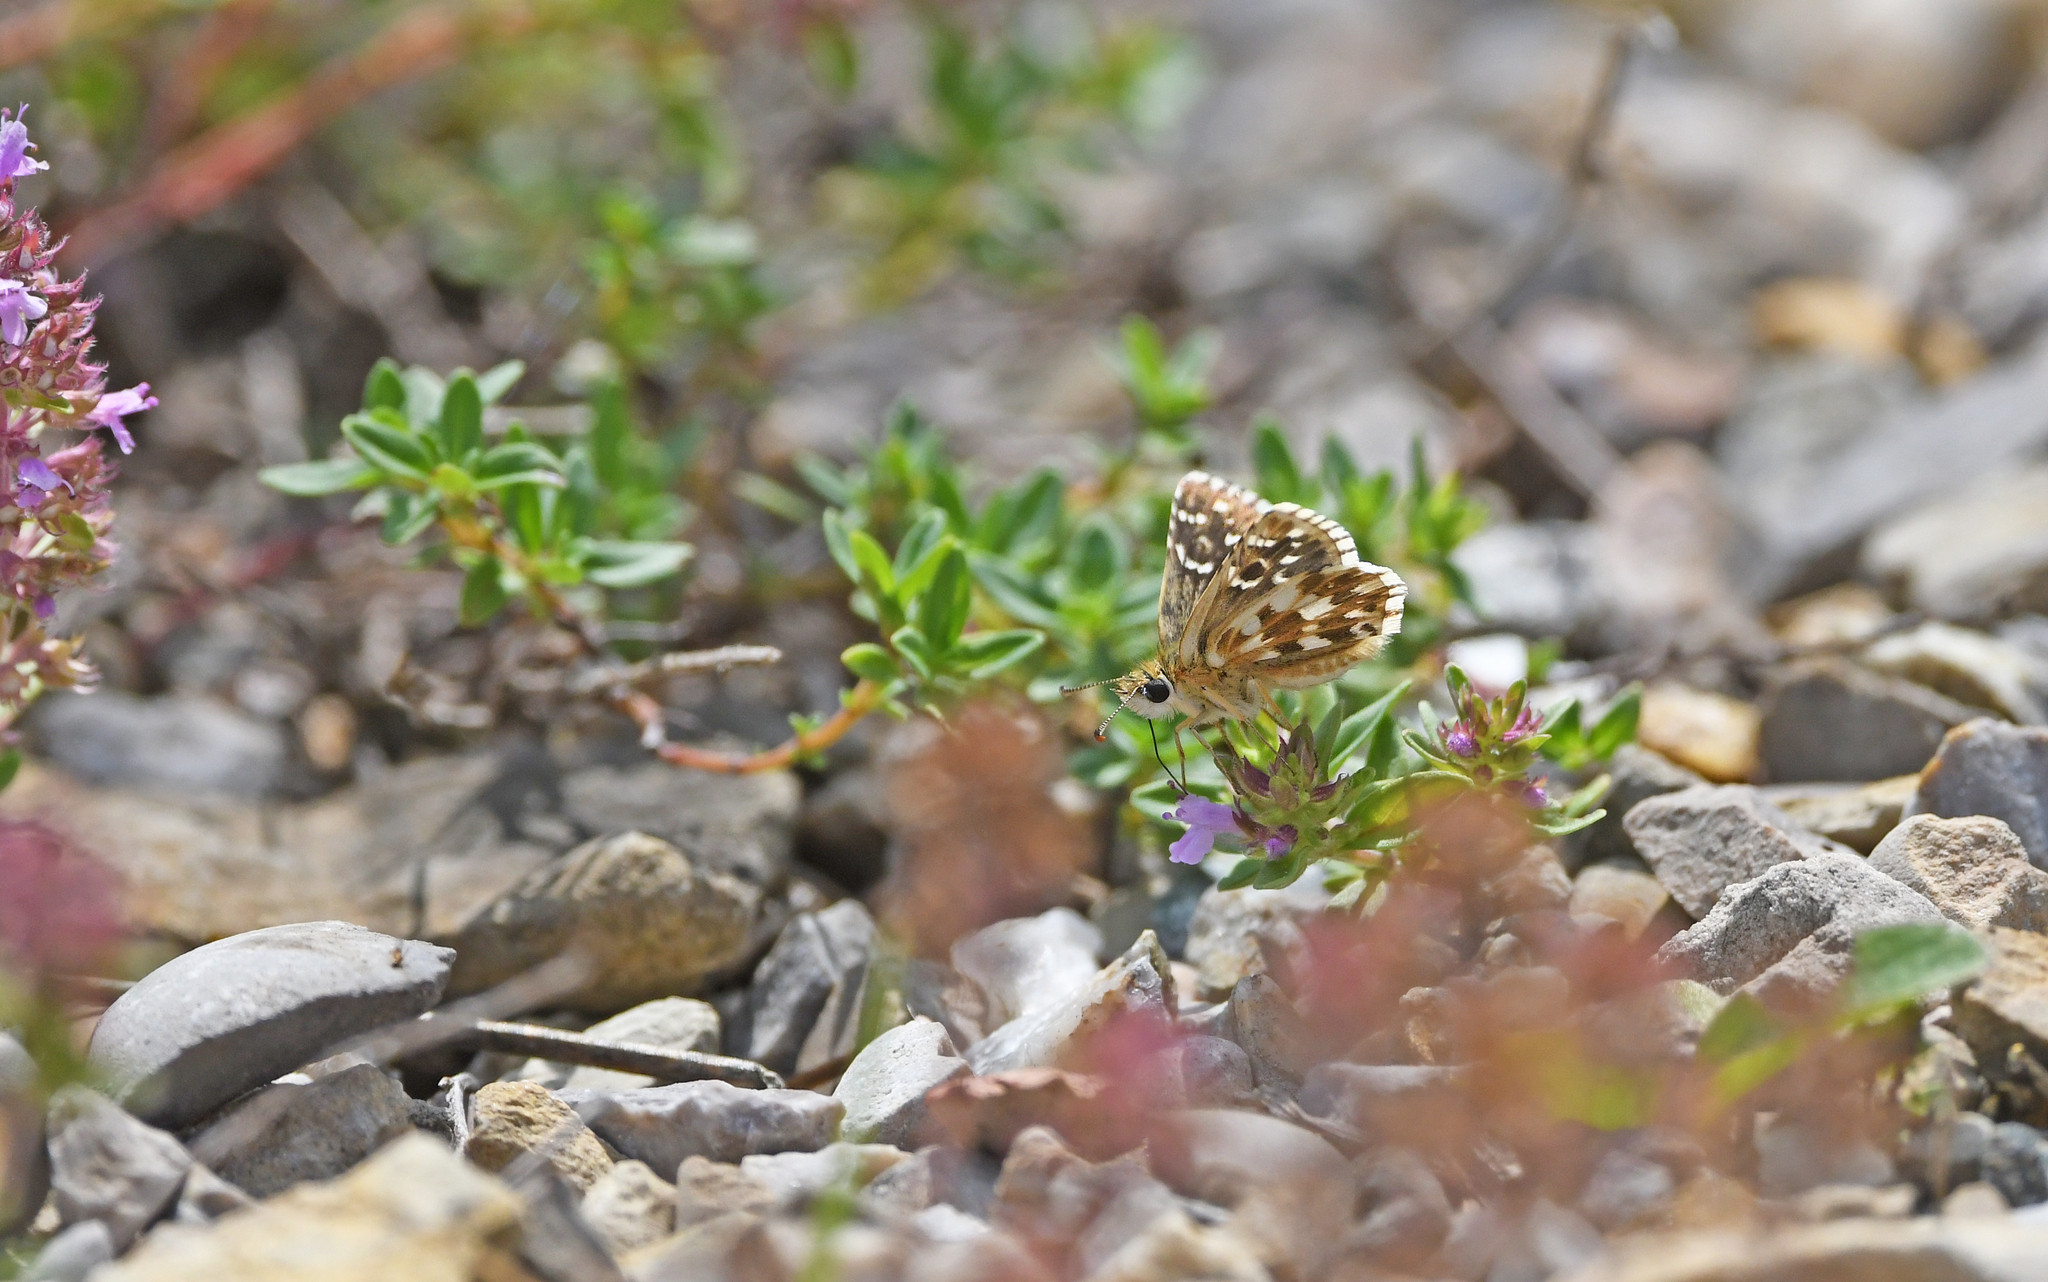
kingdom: Animalia
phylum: Arthropoda
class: Insecta
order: Lepidoptera
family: Hesperiidae
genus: Pyrgus
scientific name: Pyrgus armoricanus
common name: Oberthür's grizzled skipper
